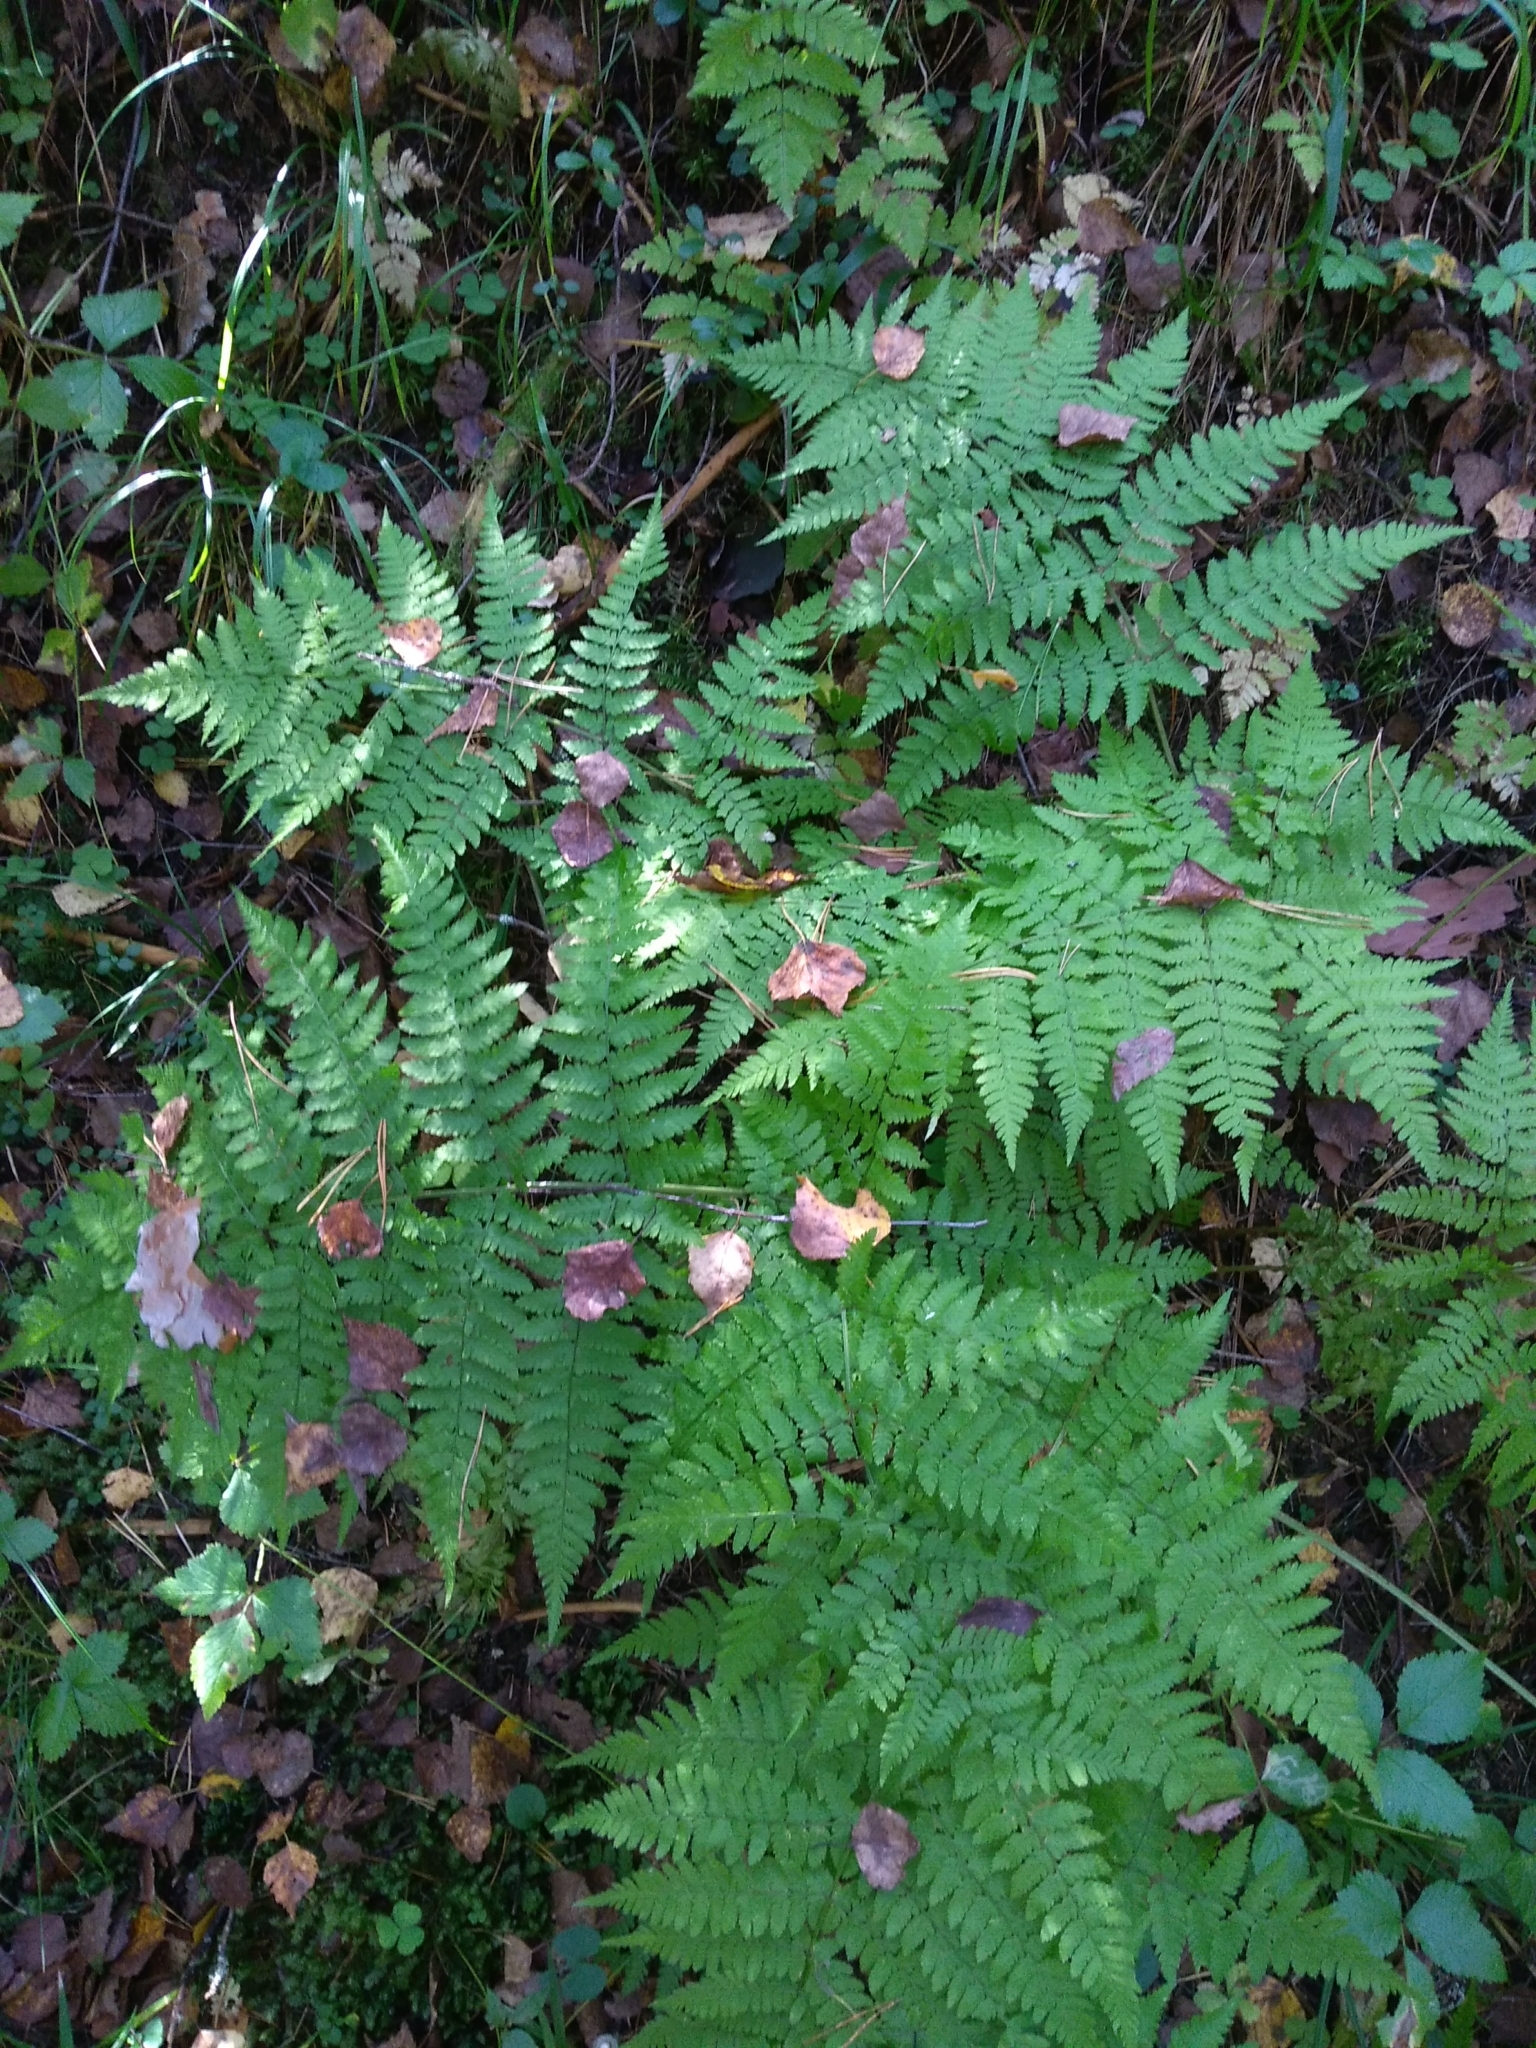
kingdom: Plantae
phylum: Tracheophyta
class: Polypodiopsida
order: Polypodiales
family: Dryopteridaceae
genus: Dryopteris
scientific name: Dryopteris expansa
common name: Northern buckler fern
